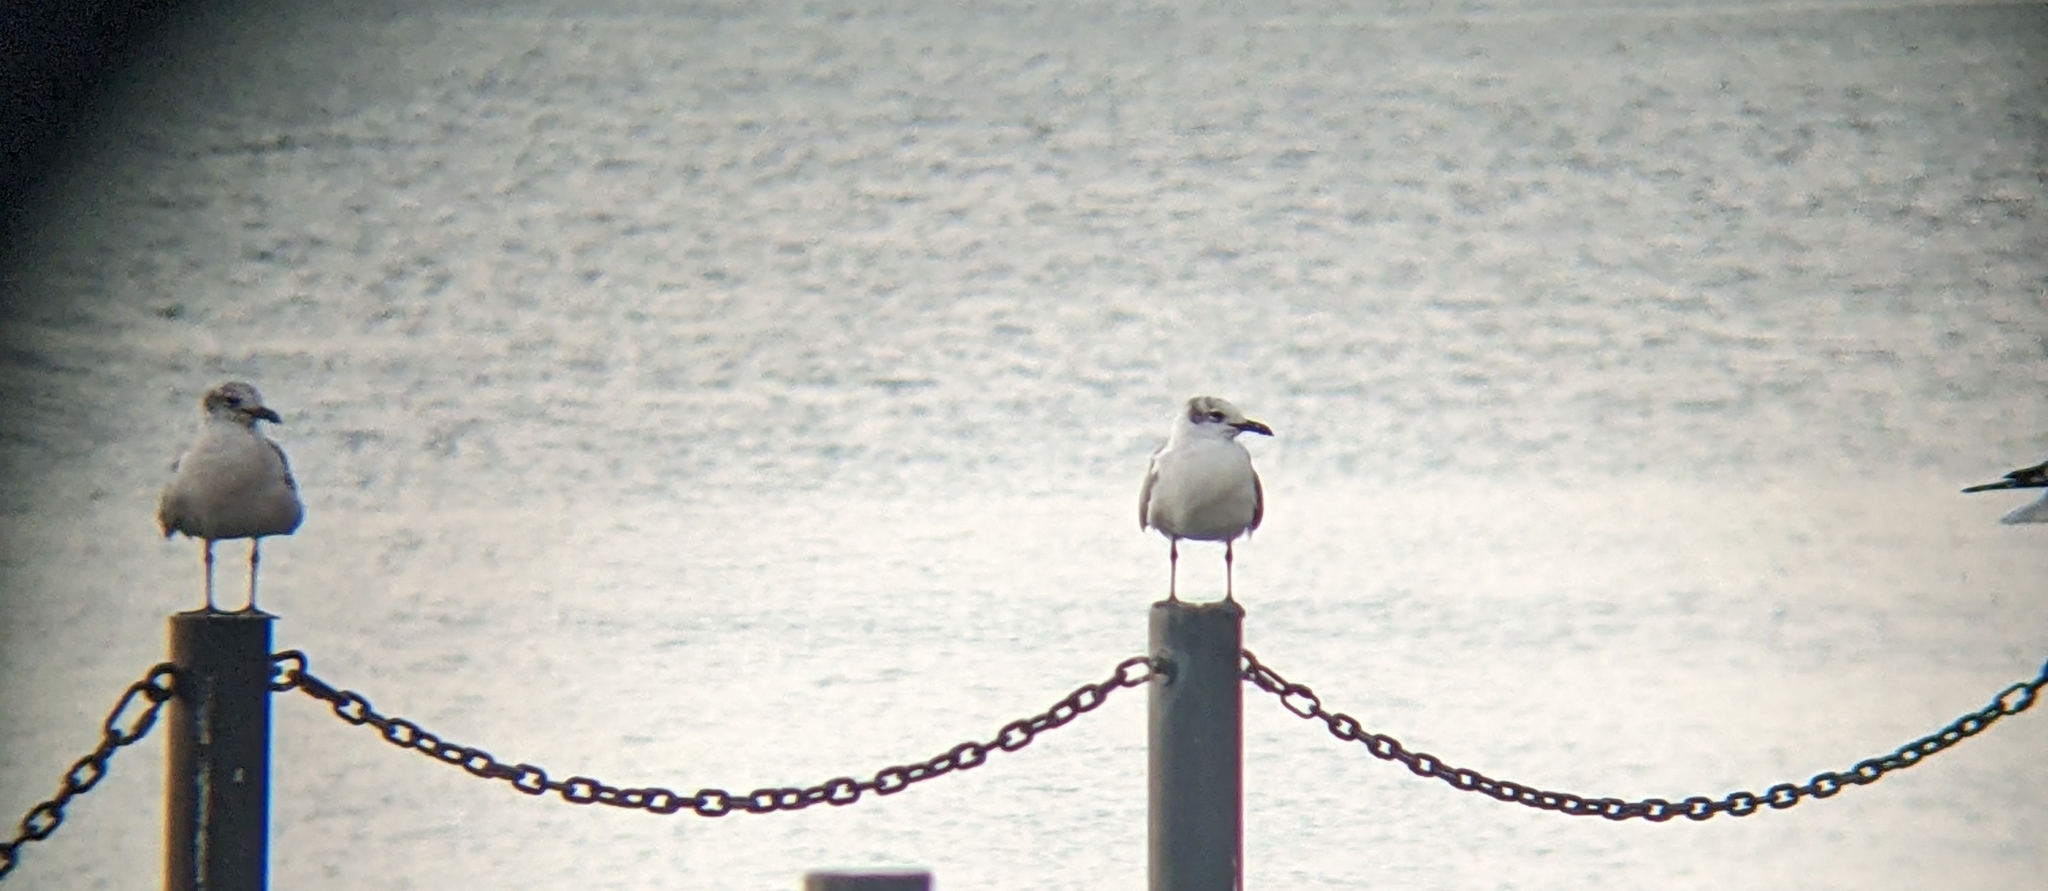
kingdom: Animalia
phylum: Chordata
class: Aves
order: Charadriiformes
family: Laridae
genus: Leucophaeus
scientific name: Leucophaeus atricilla
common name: Laughing gull
